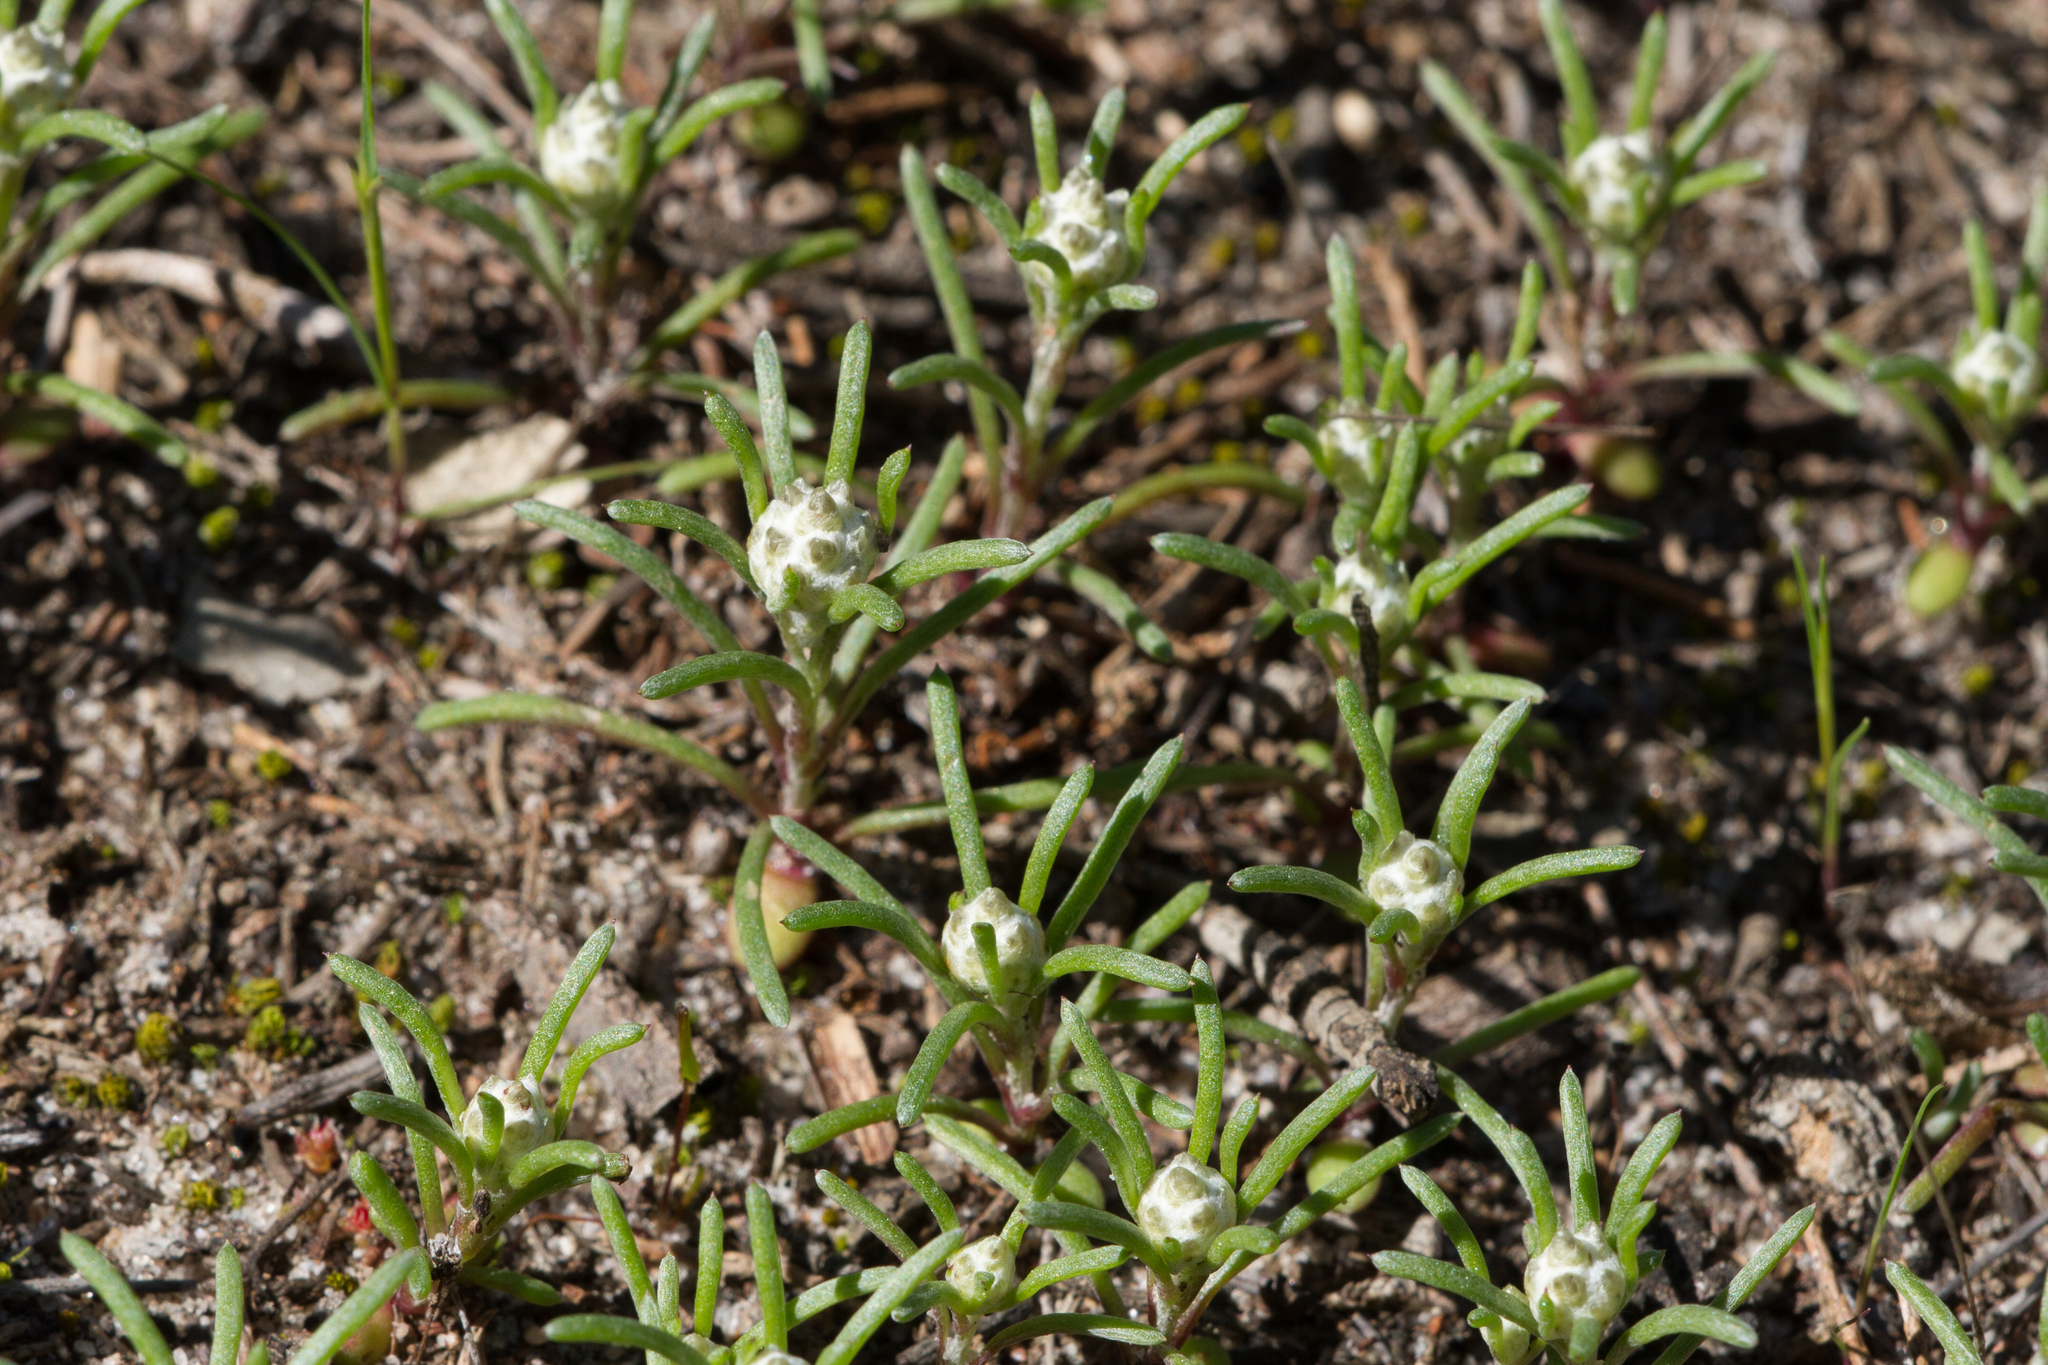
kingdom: Plantae
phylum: Tracheophyta
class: Magnoliopsida
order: Asterales
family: Asteraceae
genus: Blennospora
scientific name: Blennospora drummondii
